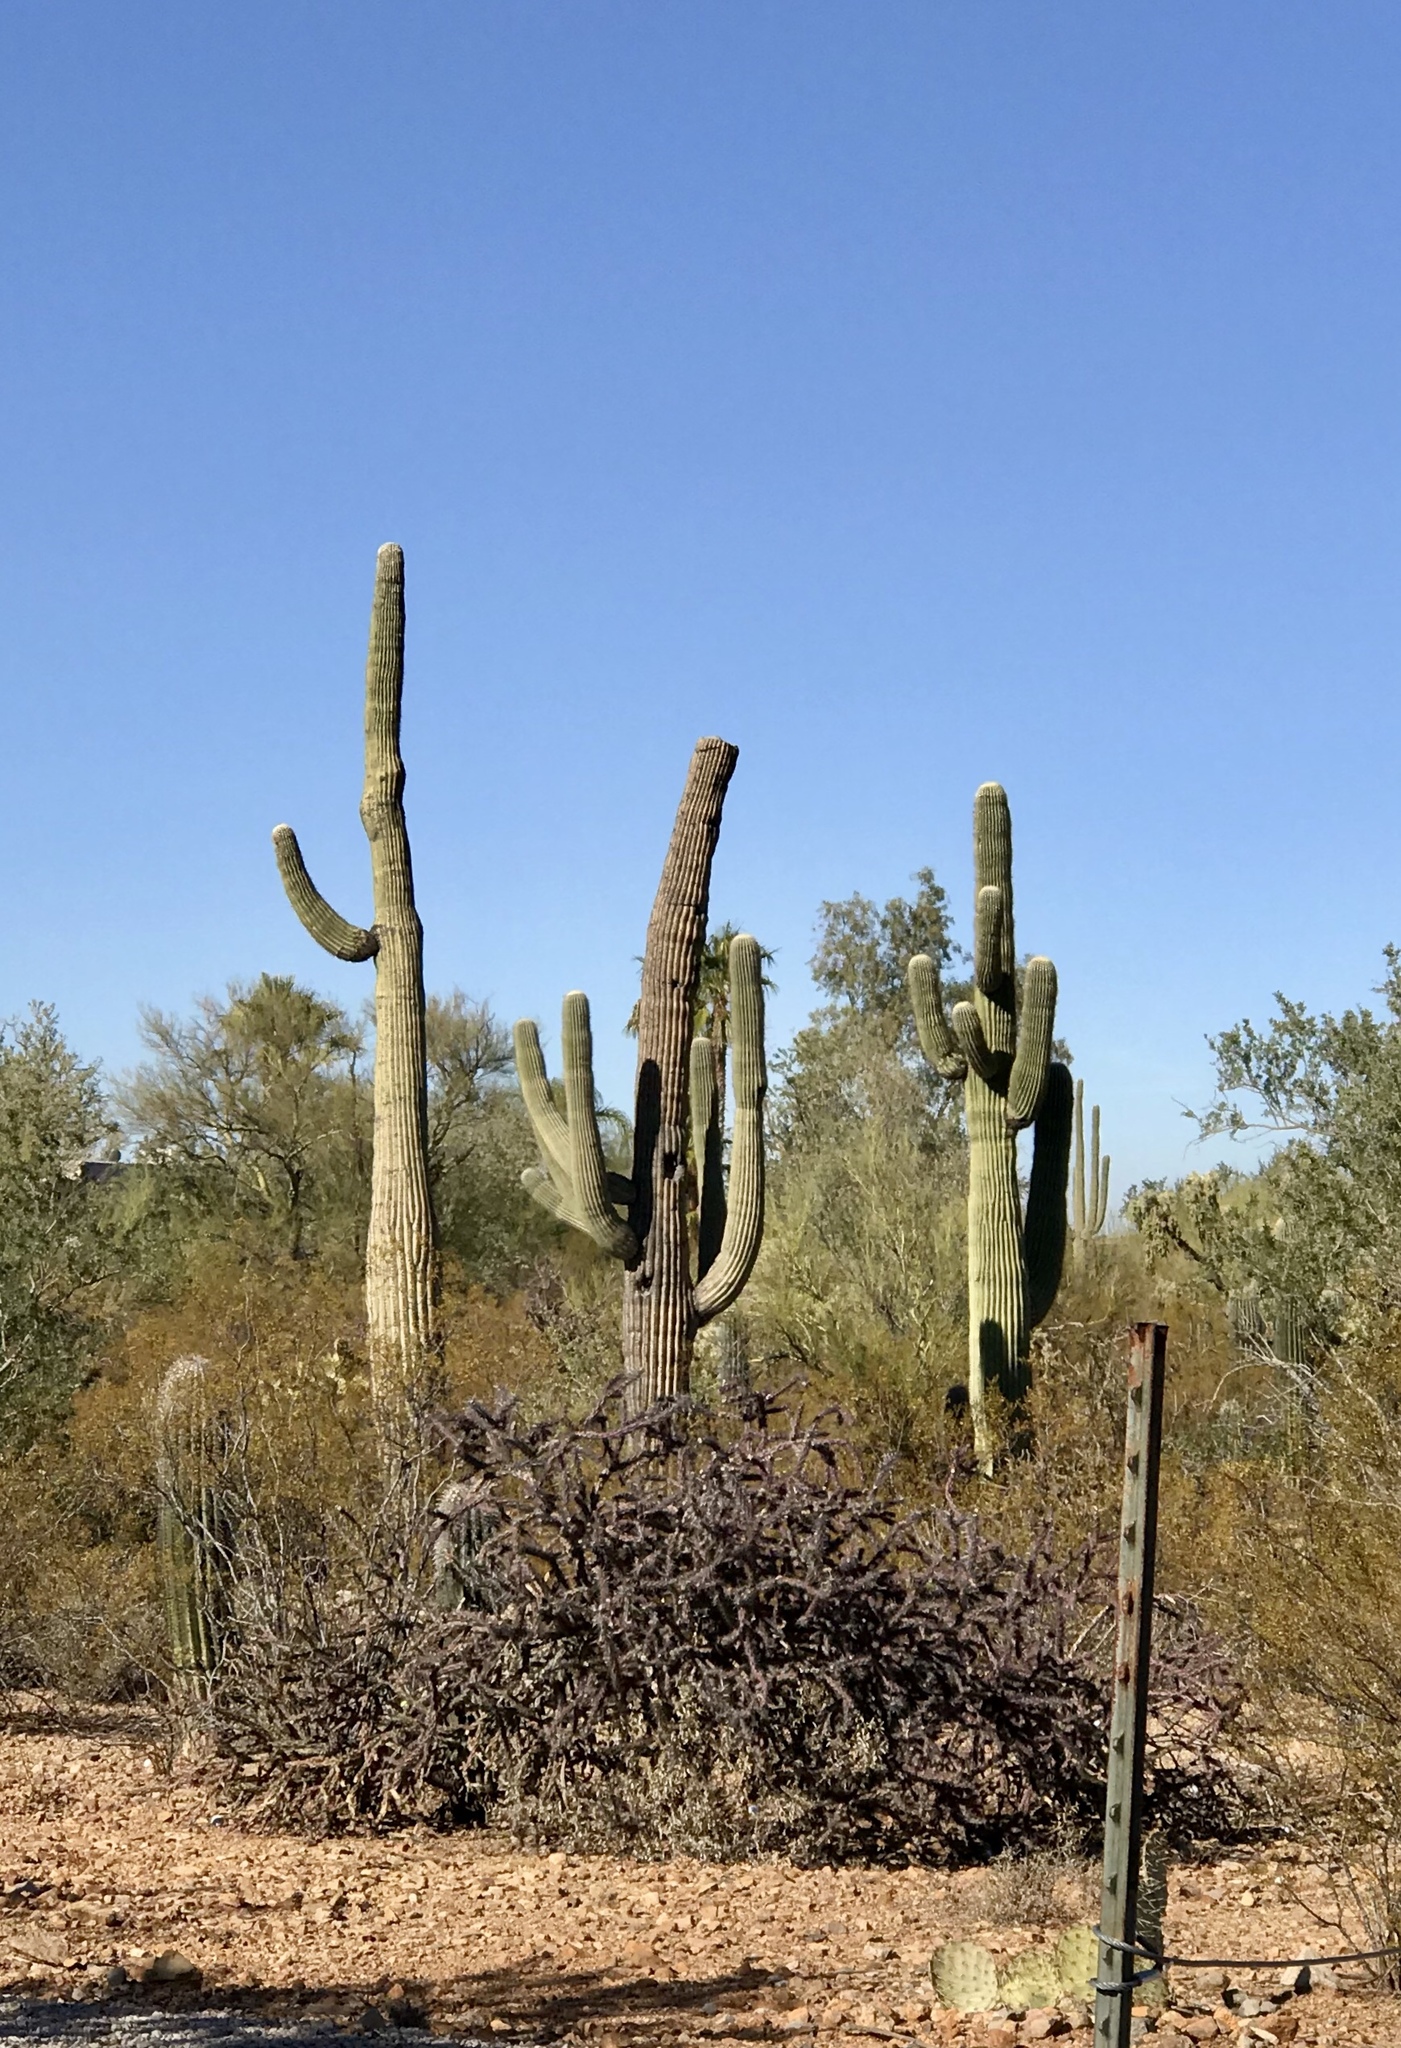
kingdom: Plantae
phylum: Tracheophyta
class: Magnoliopsida
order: Caryophyllales
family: Cactaceae
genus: Carnegiea
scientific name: Carnegiea gigantea
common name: Saguaro
